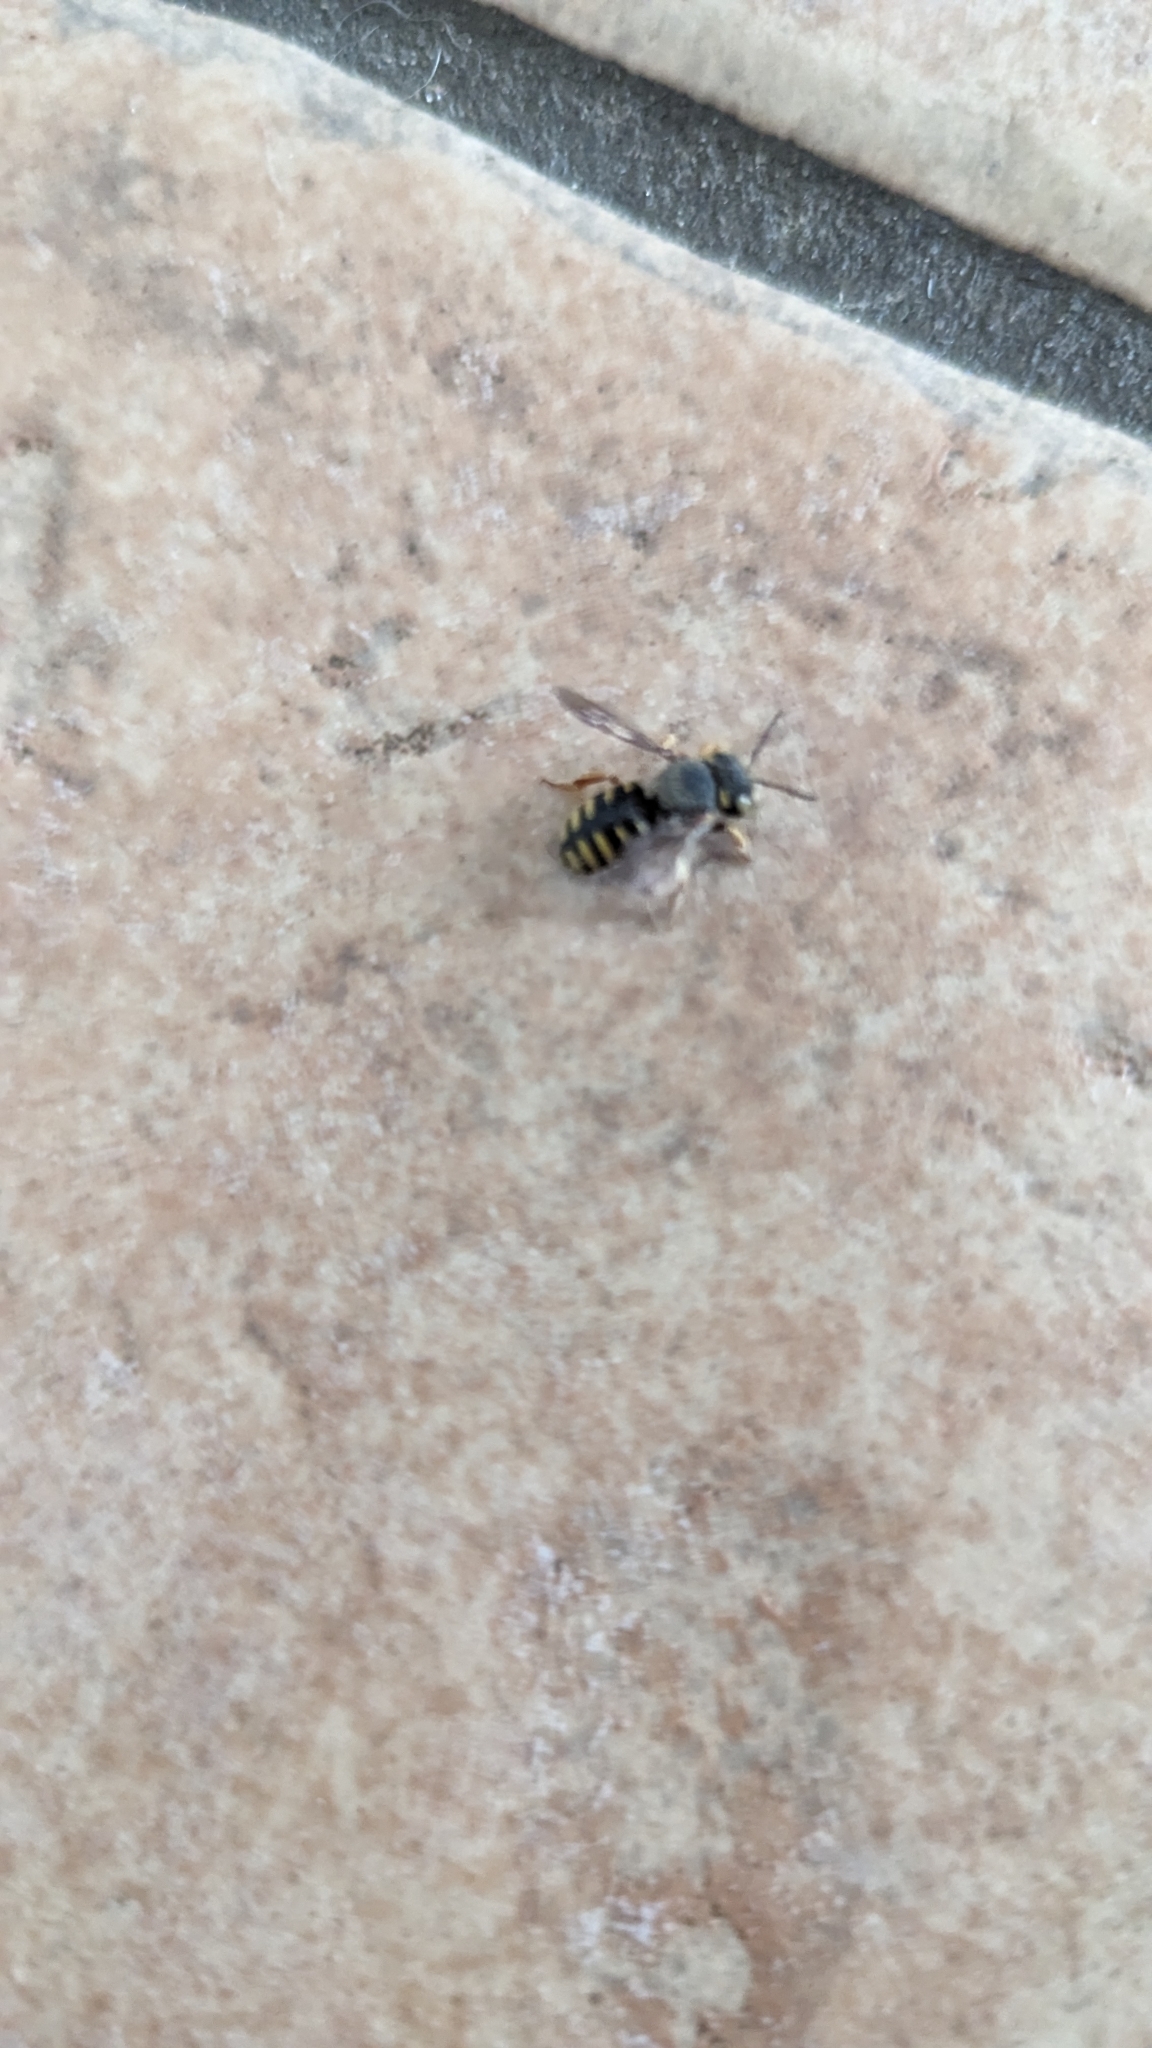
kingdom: Animalia
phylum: Arthropoda
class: Insecta
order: Hymenoptera
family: Megachilidae
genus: Anthidium
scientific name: Anthidium oblongatum
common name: Oblong wool carder bee
